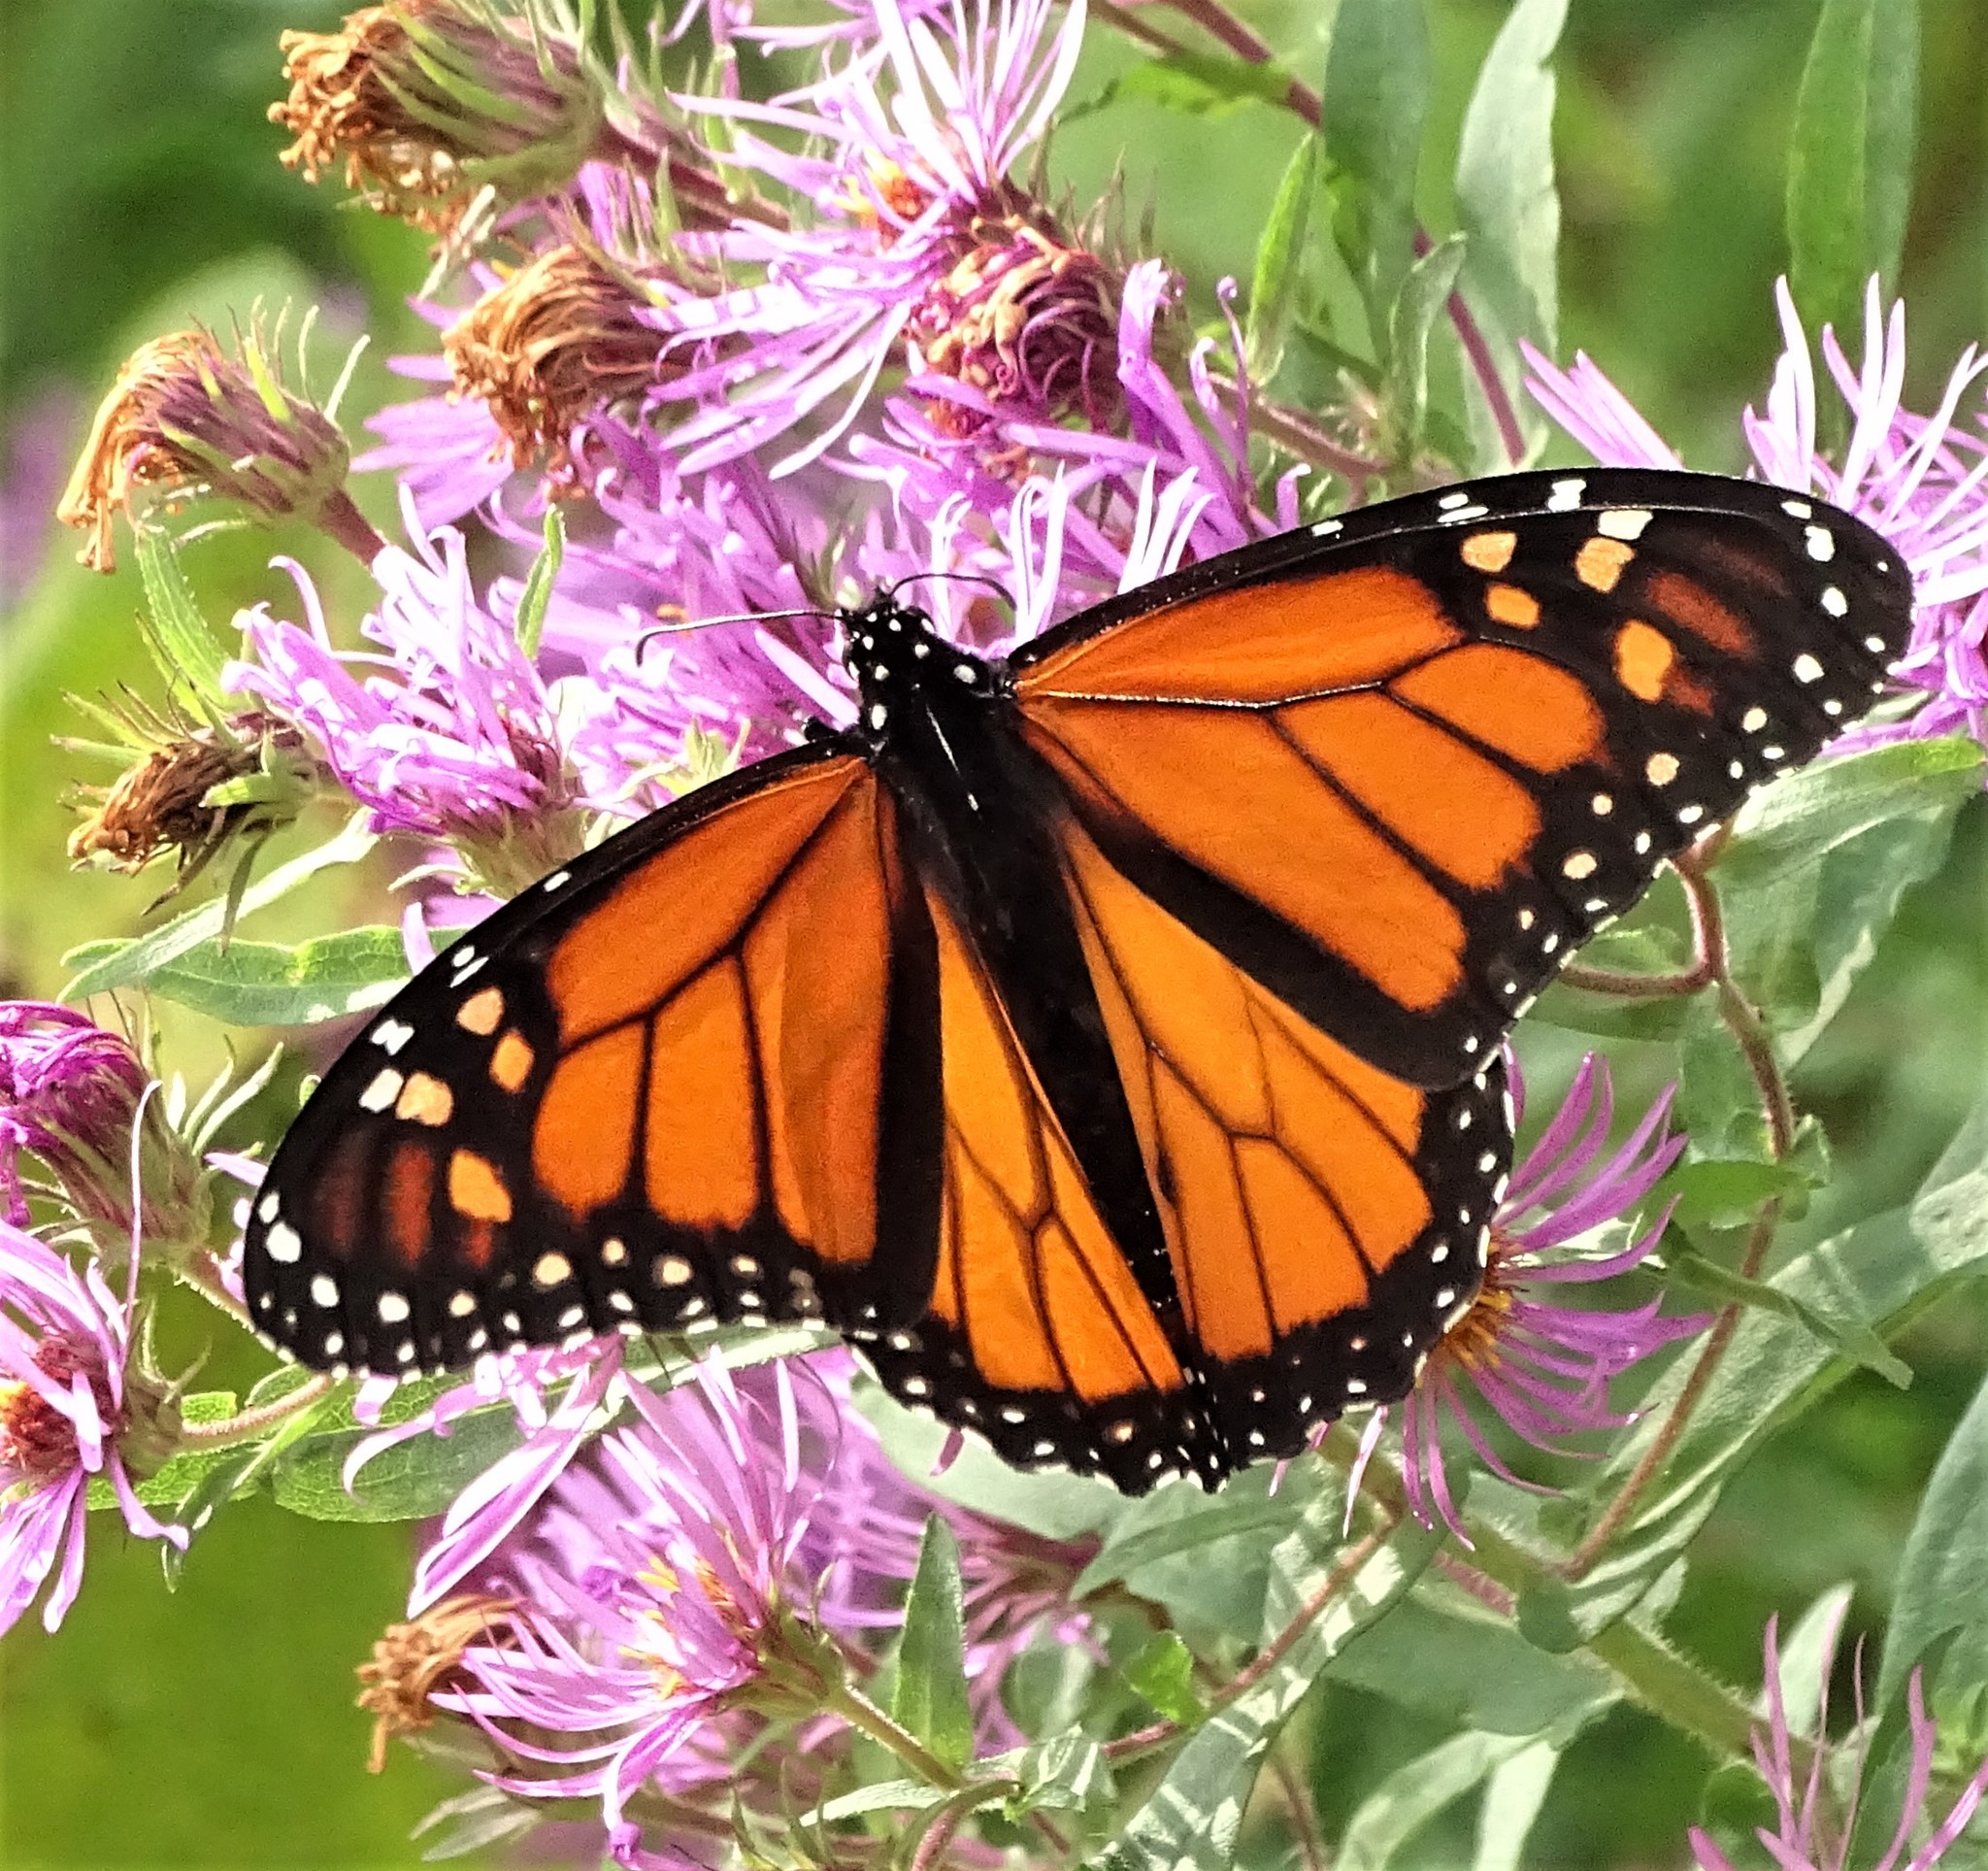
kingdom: Animalia
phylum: Arthropoda
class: Insecta
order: Lepidoptera
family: Nymphalidae
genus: Danaus
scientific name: Danaus plexippus
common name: Monarch
